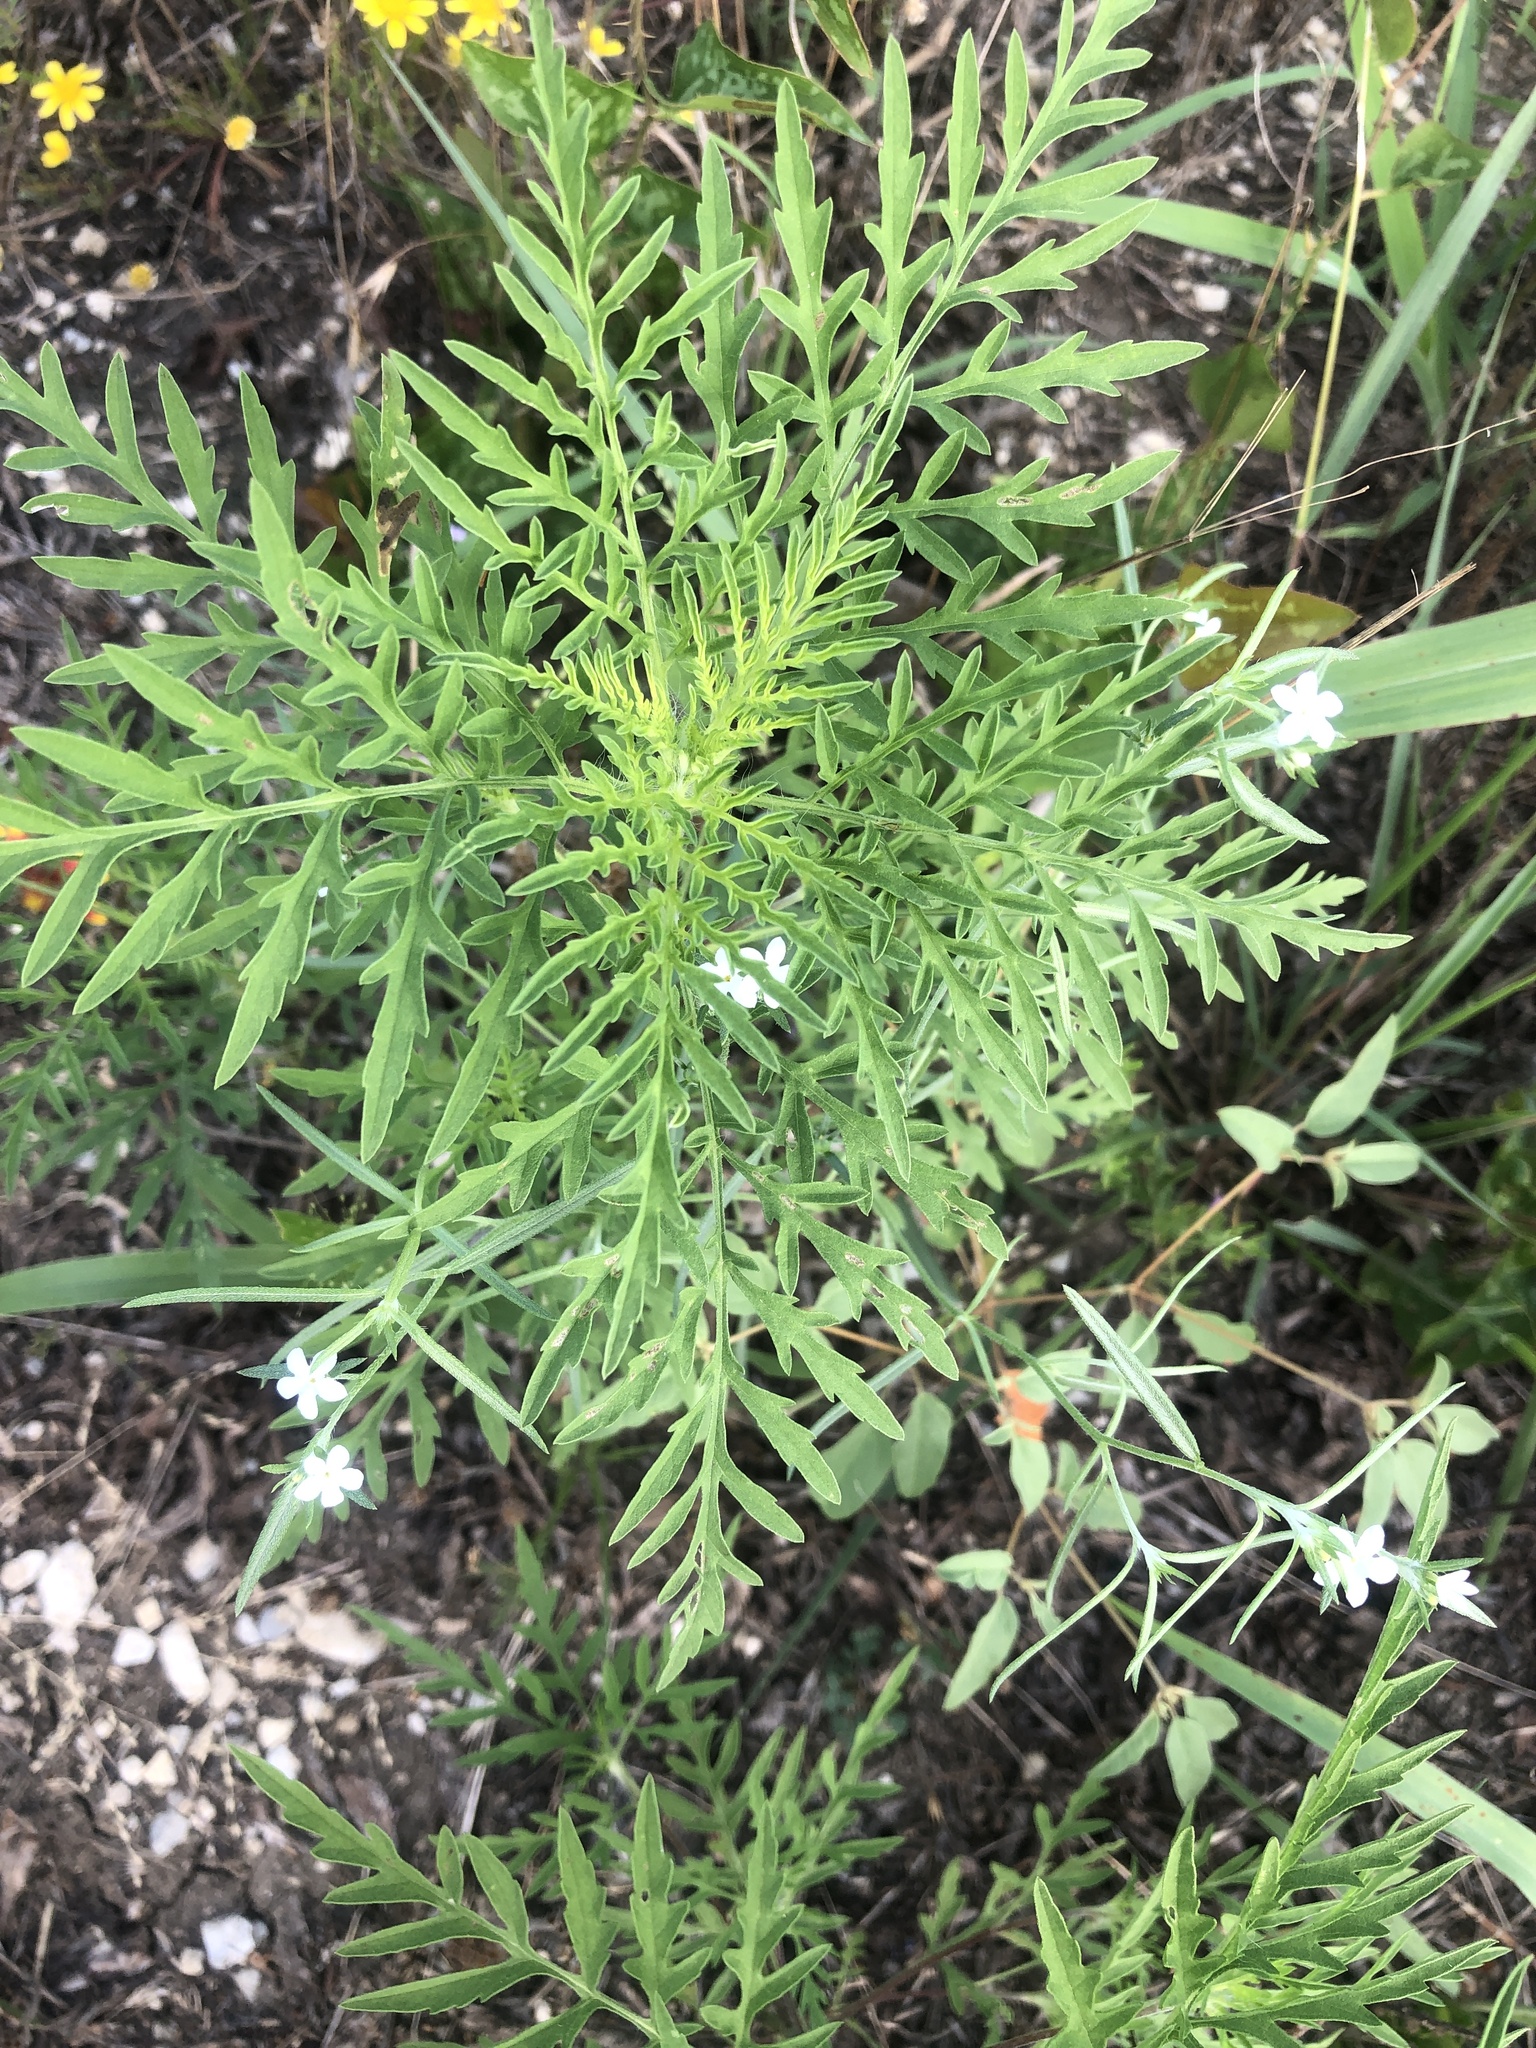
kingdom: Plantae
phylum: Tracheophyta
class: Magnoliopsida
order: Asterales
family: Asteraceae
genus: Ambrosia
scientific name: Ambrosia psilostachya
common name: Perennial ragweed
